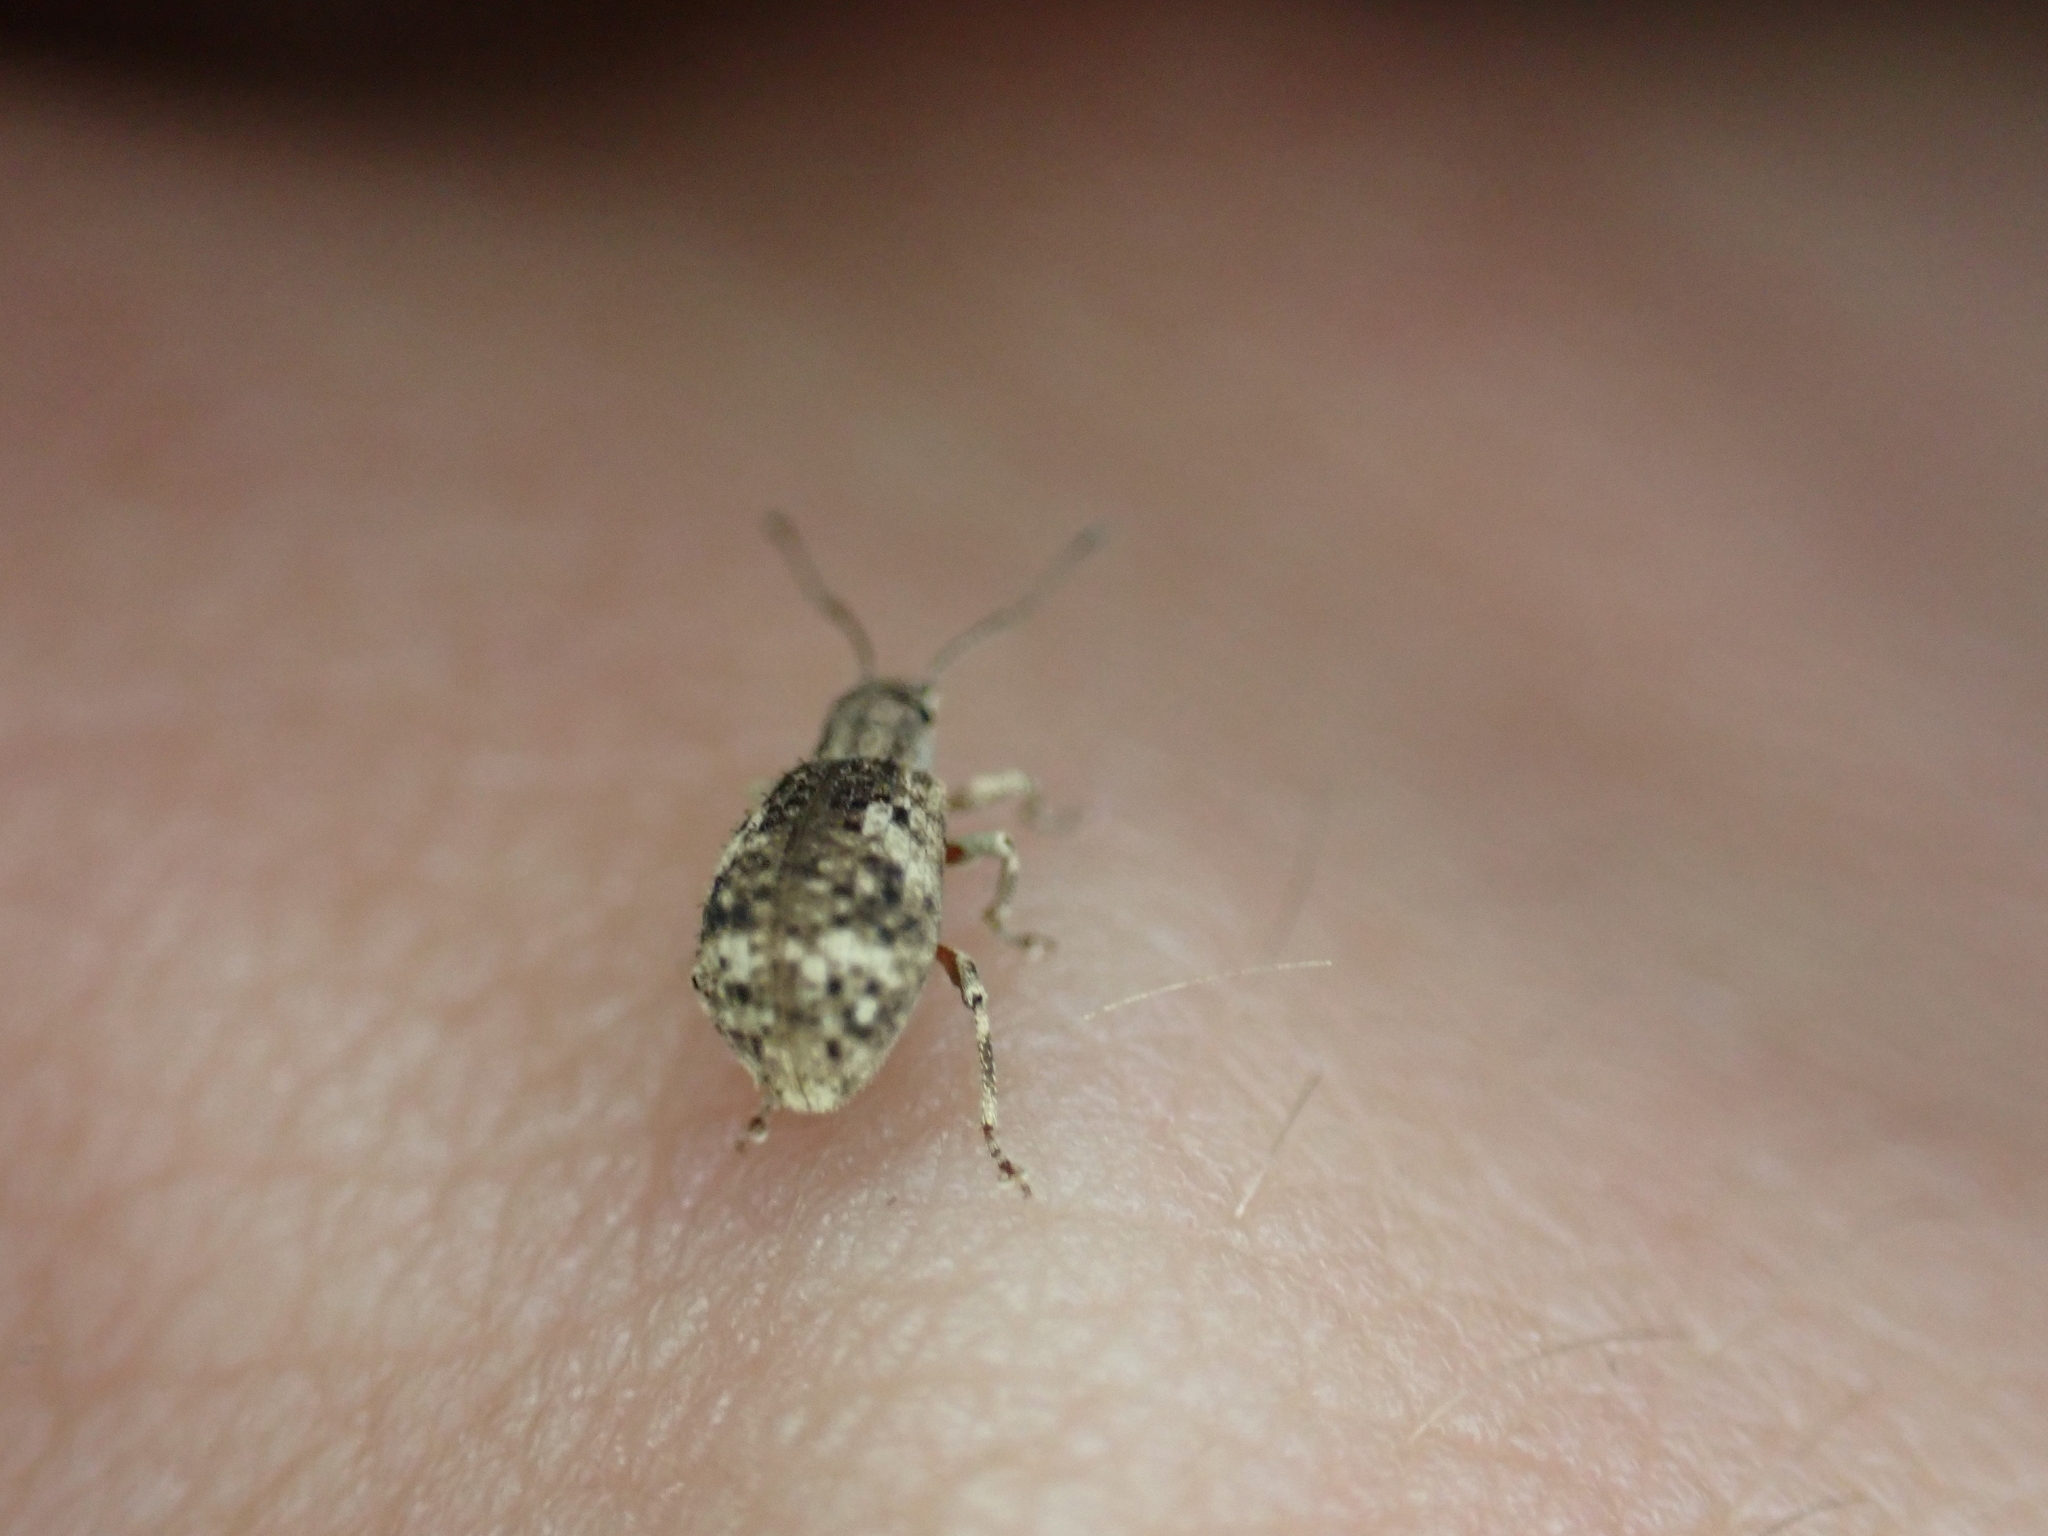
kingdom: Animalia
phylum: Arthropoda
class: Insecta
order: Coleoptera
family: Curculionidae
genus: Pseudoedophrys
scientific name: Pseudoedophrys hilleri
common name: Weevil
